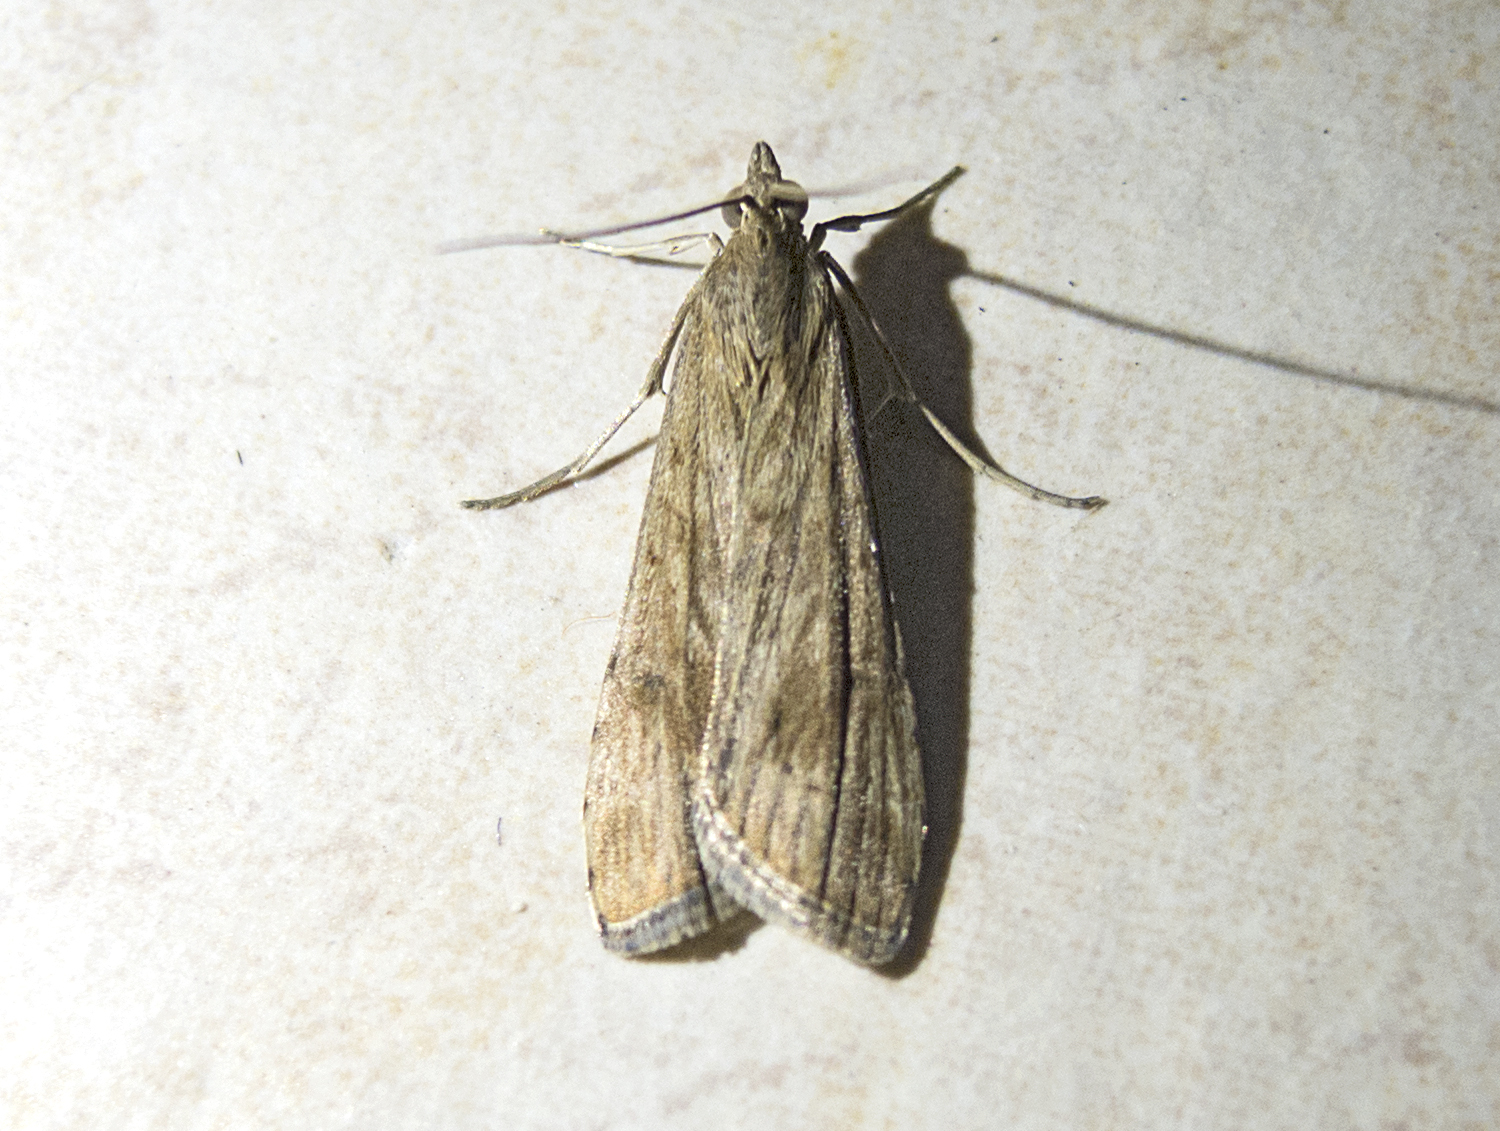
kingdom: Animalia
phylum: Arthropoda
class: Insecta
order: Lepidoptera
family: Crambidae
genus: Nomophila
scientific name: Nomophila noctuella
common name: Rush veneer
